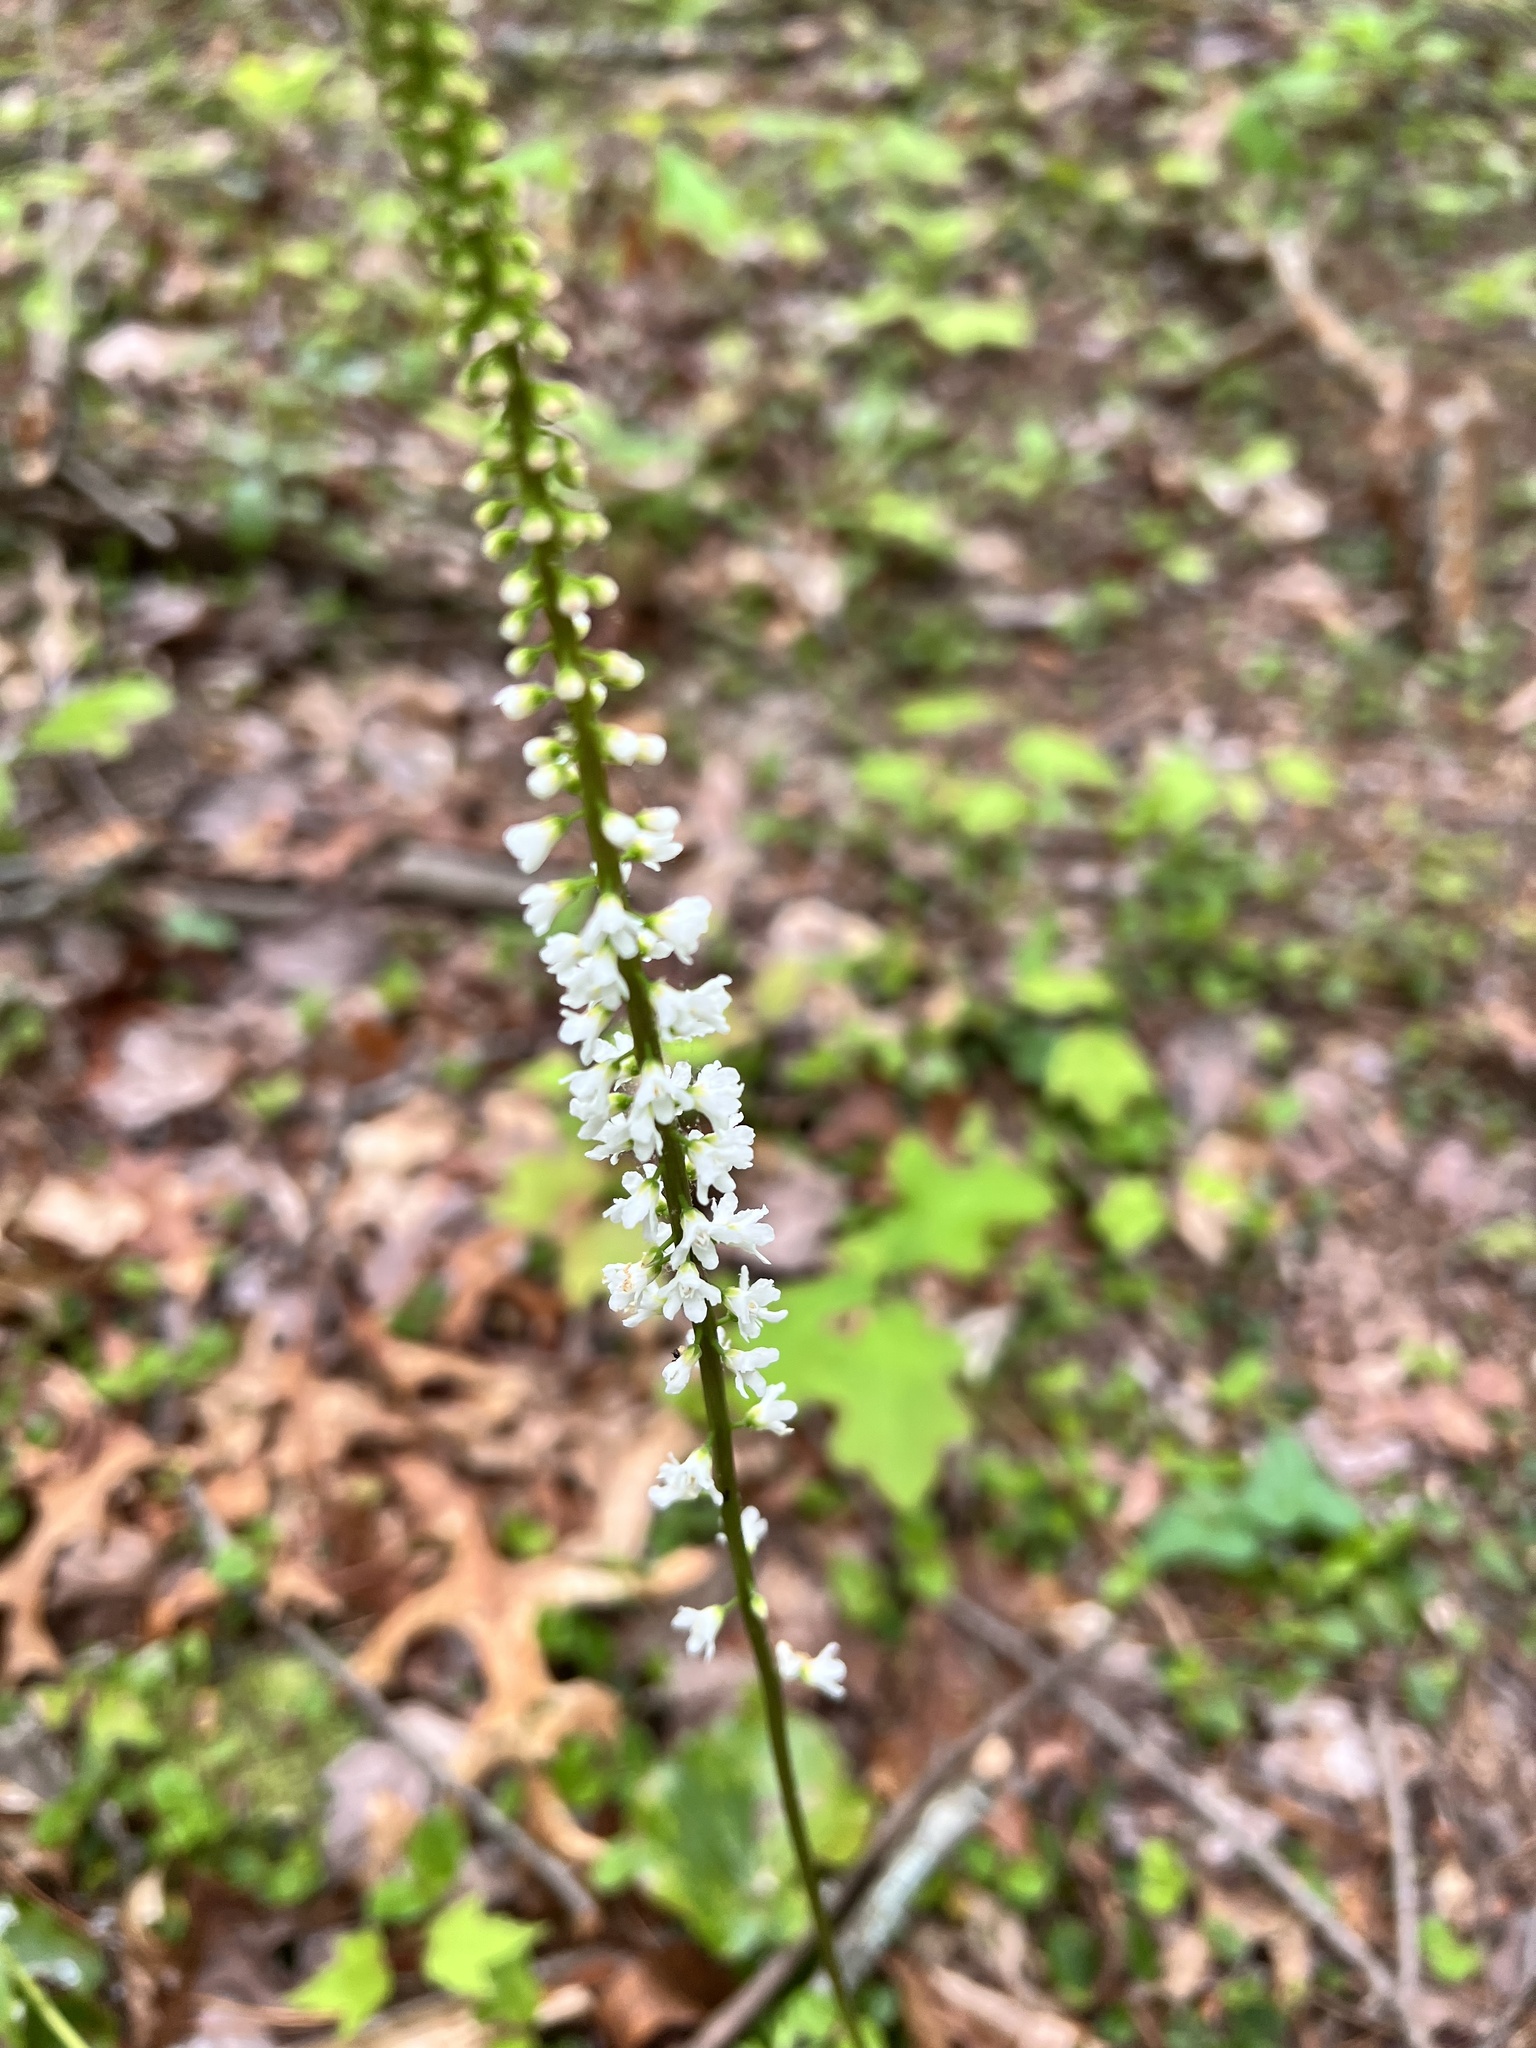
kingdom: Plantae
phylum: Tracheophyta
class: Magnoliopsida
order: Ericales
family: Diapensiaceae
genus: Galax
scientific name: Galax urceolata
